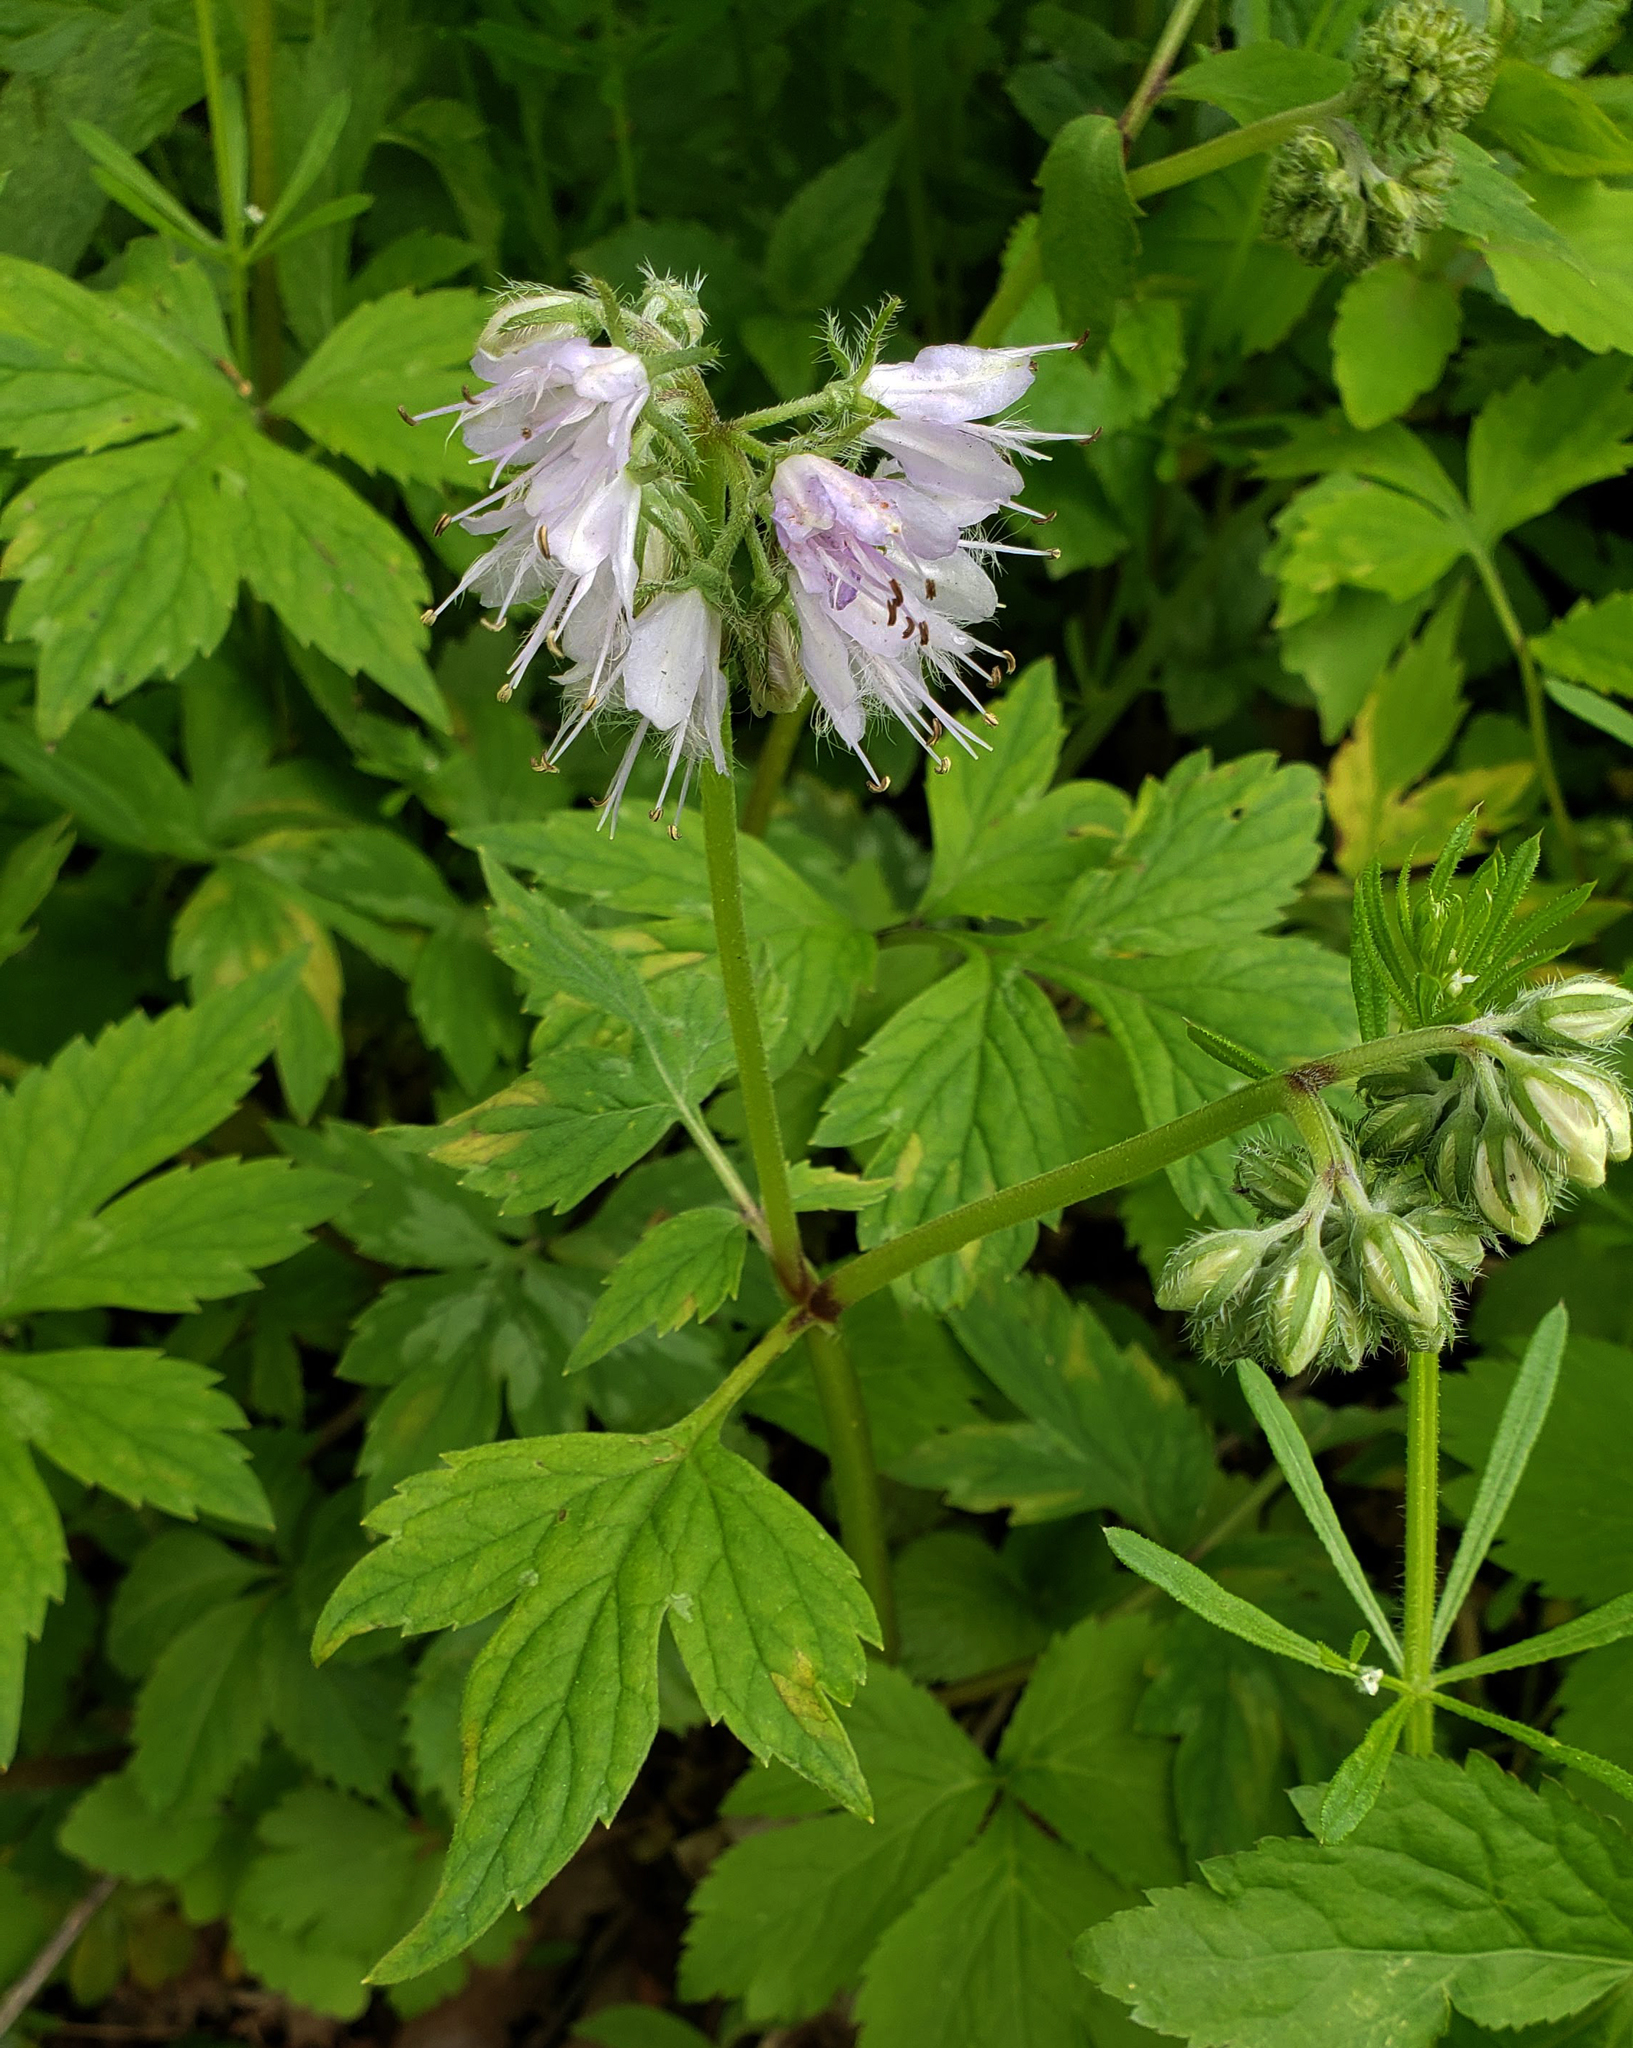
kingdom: Plantae
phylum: Tracheophyta
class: Magnoliopsida
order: Boraginales
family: Hydrophyllaceae
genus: Hydrophyllum
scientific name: Hydrophyllum virginianum
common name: Virginia waterleaf
